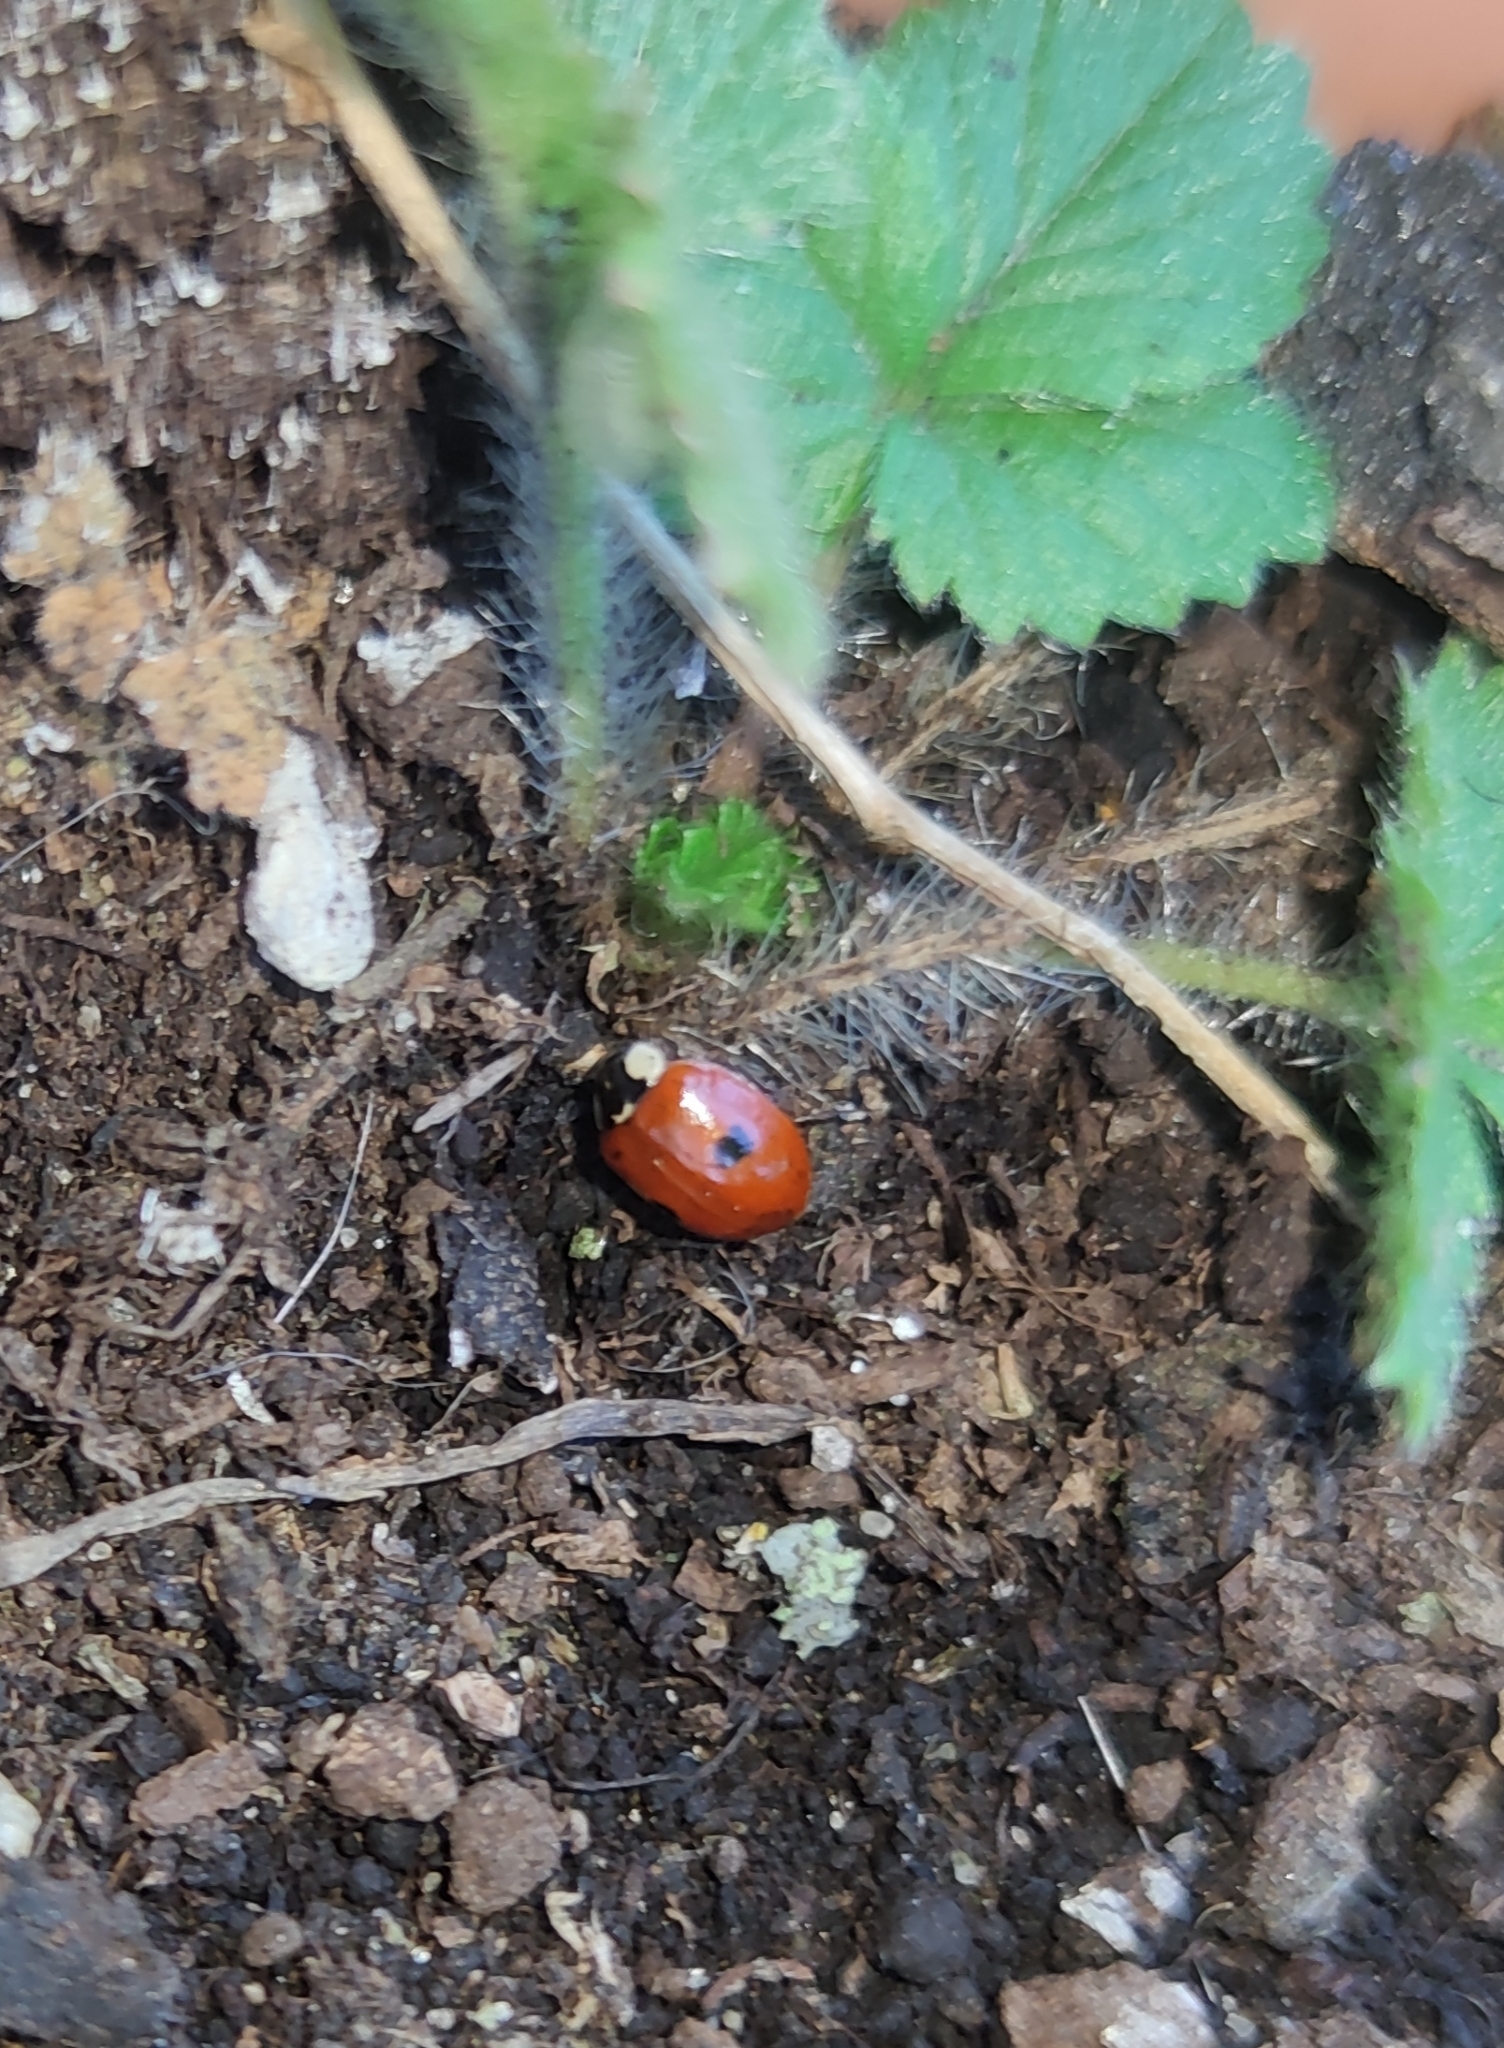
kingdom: Animalia
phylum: Arthropoda
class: Insecta
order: Coleoptera
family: Coccinellidae
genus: Adalia
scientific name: Adalia bipunctata
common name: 2-spot ladybird
